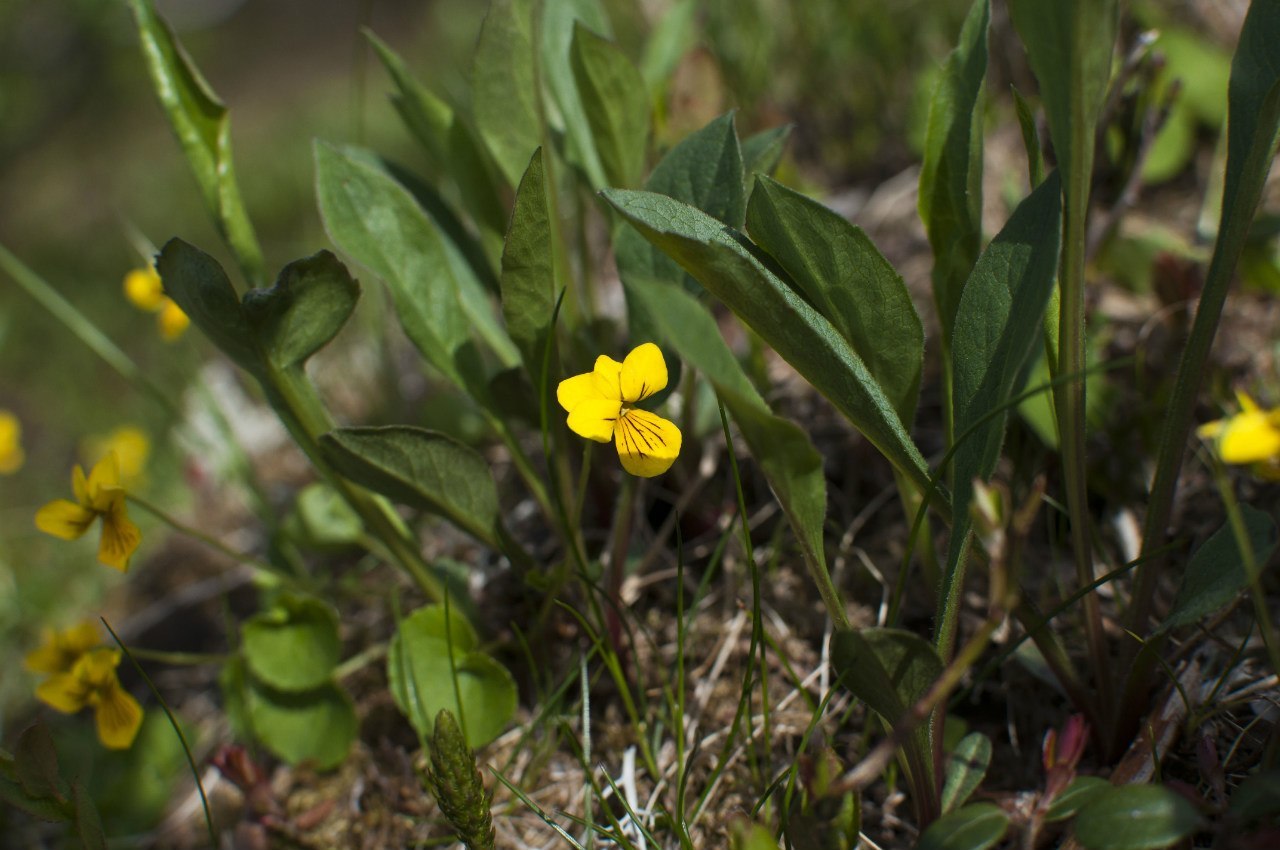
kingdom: Plantae
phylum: Tracheophyta
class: Magnoliopsida
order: Malpighiales
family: Violaceae
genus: Viola
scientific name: Viola biflora
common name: Alpine yellow violet
